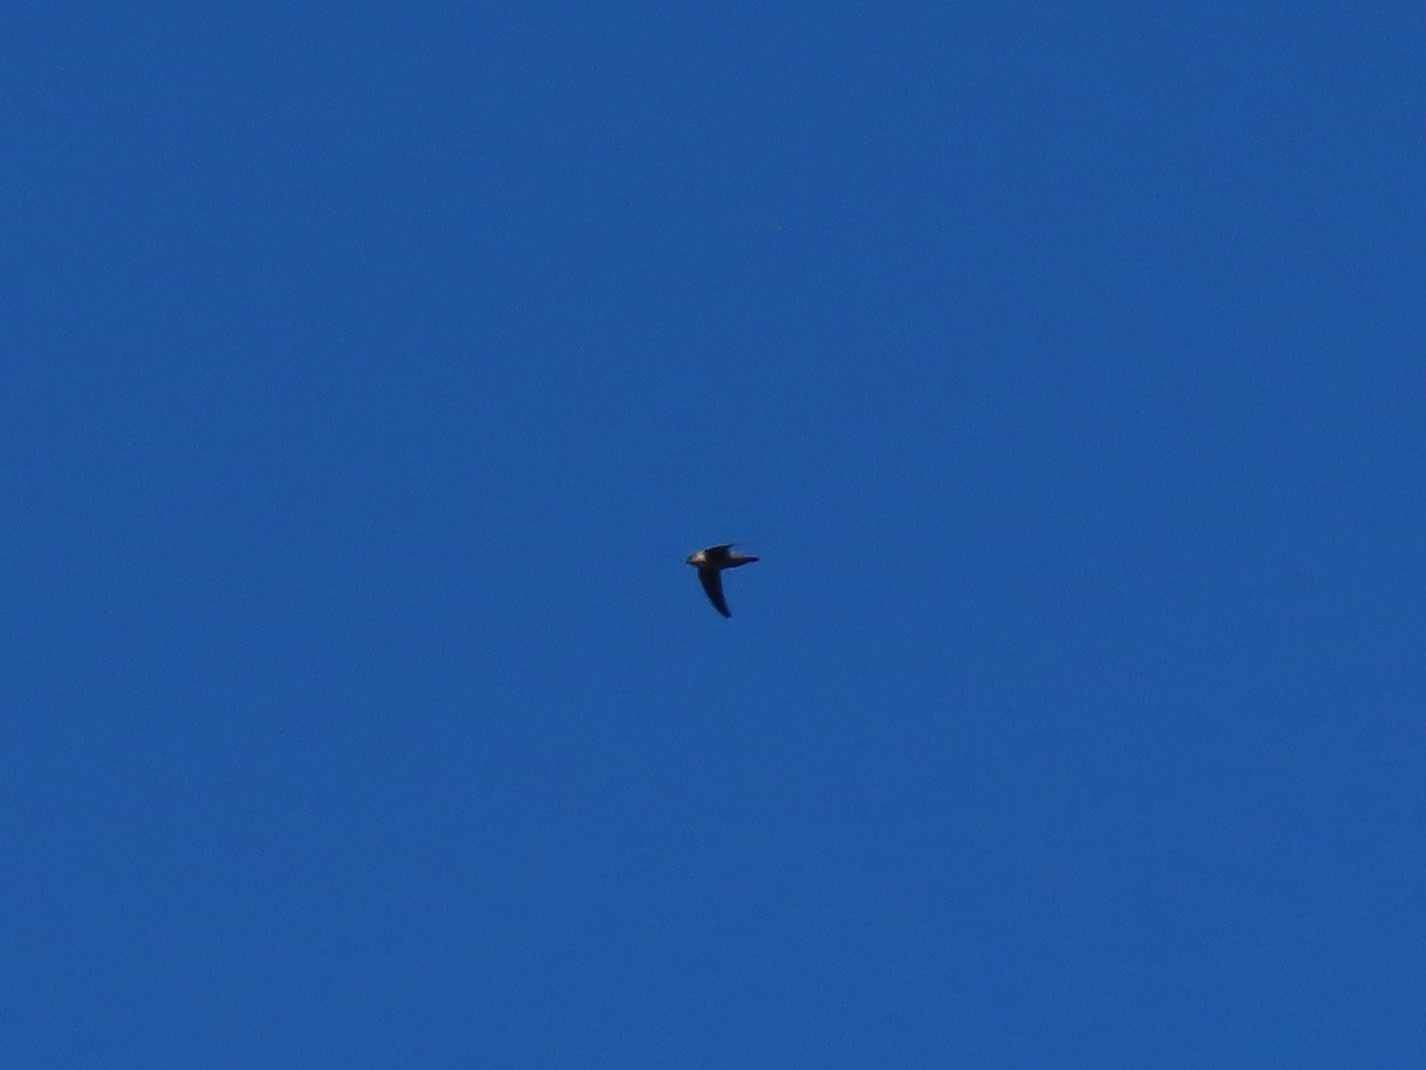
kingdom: Animalia
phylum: Chordata
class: Aves
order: Apodiformes
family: Apodidae
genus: Chaetura
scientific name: Chaetura vauxi
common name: Vaux's swift
